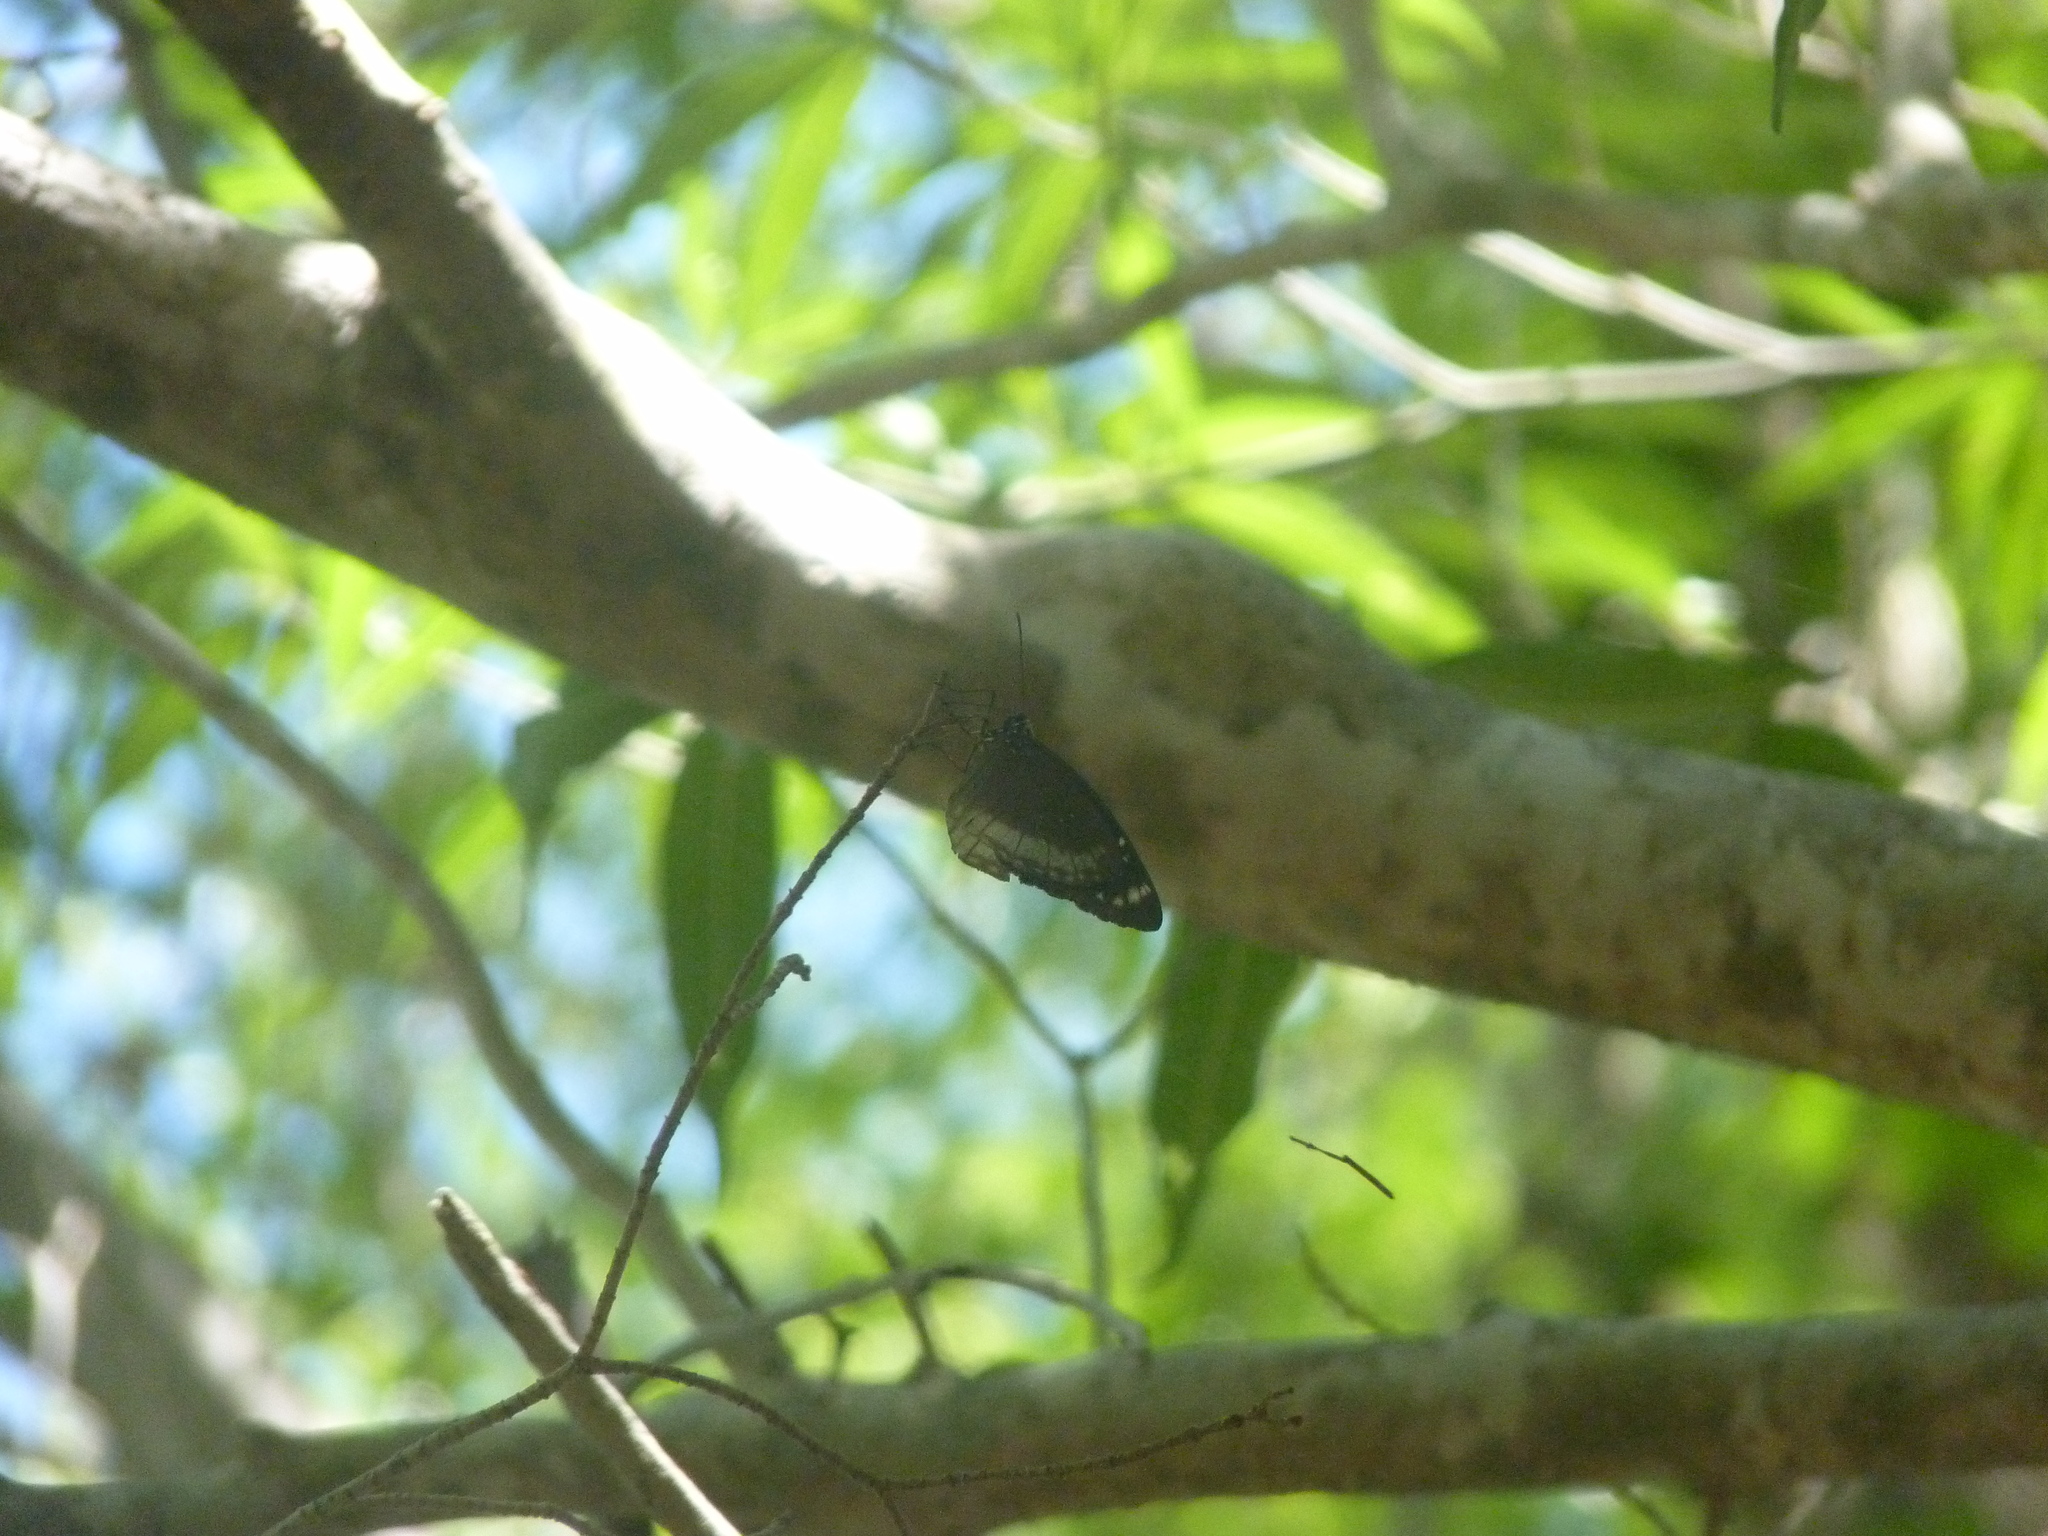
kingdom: Animalia
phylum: Arthropoda
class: Insecta
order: Lepidoptera
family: Nymphalidae
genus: Euploea
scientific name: Euploea euphon
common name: Mascarene crow
